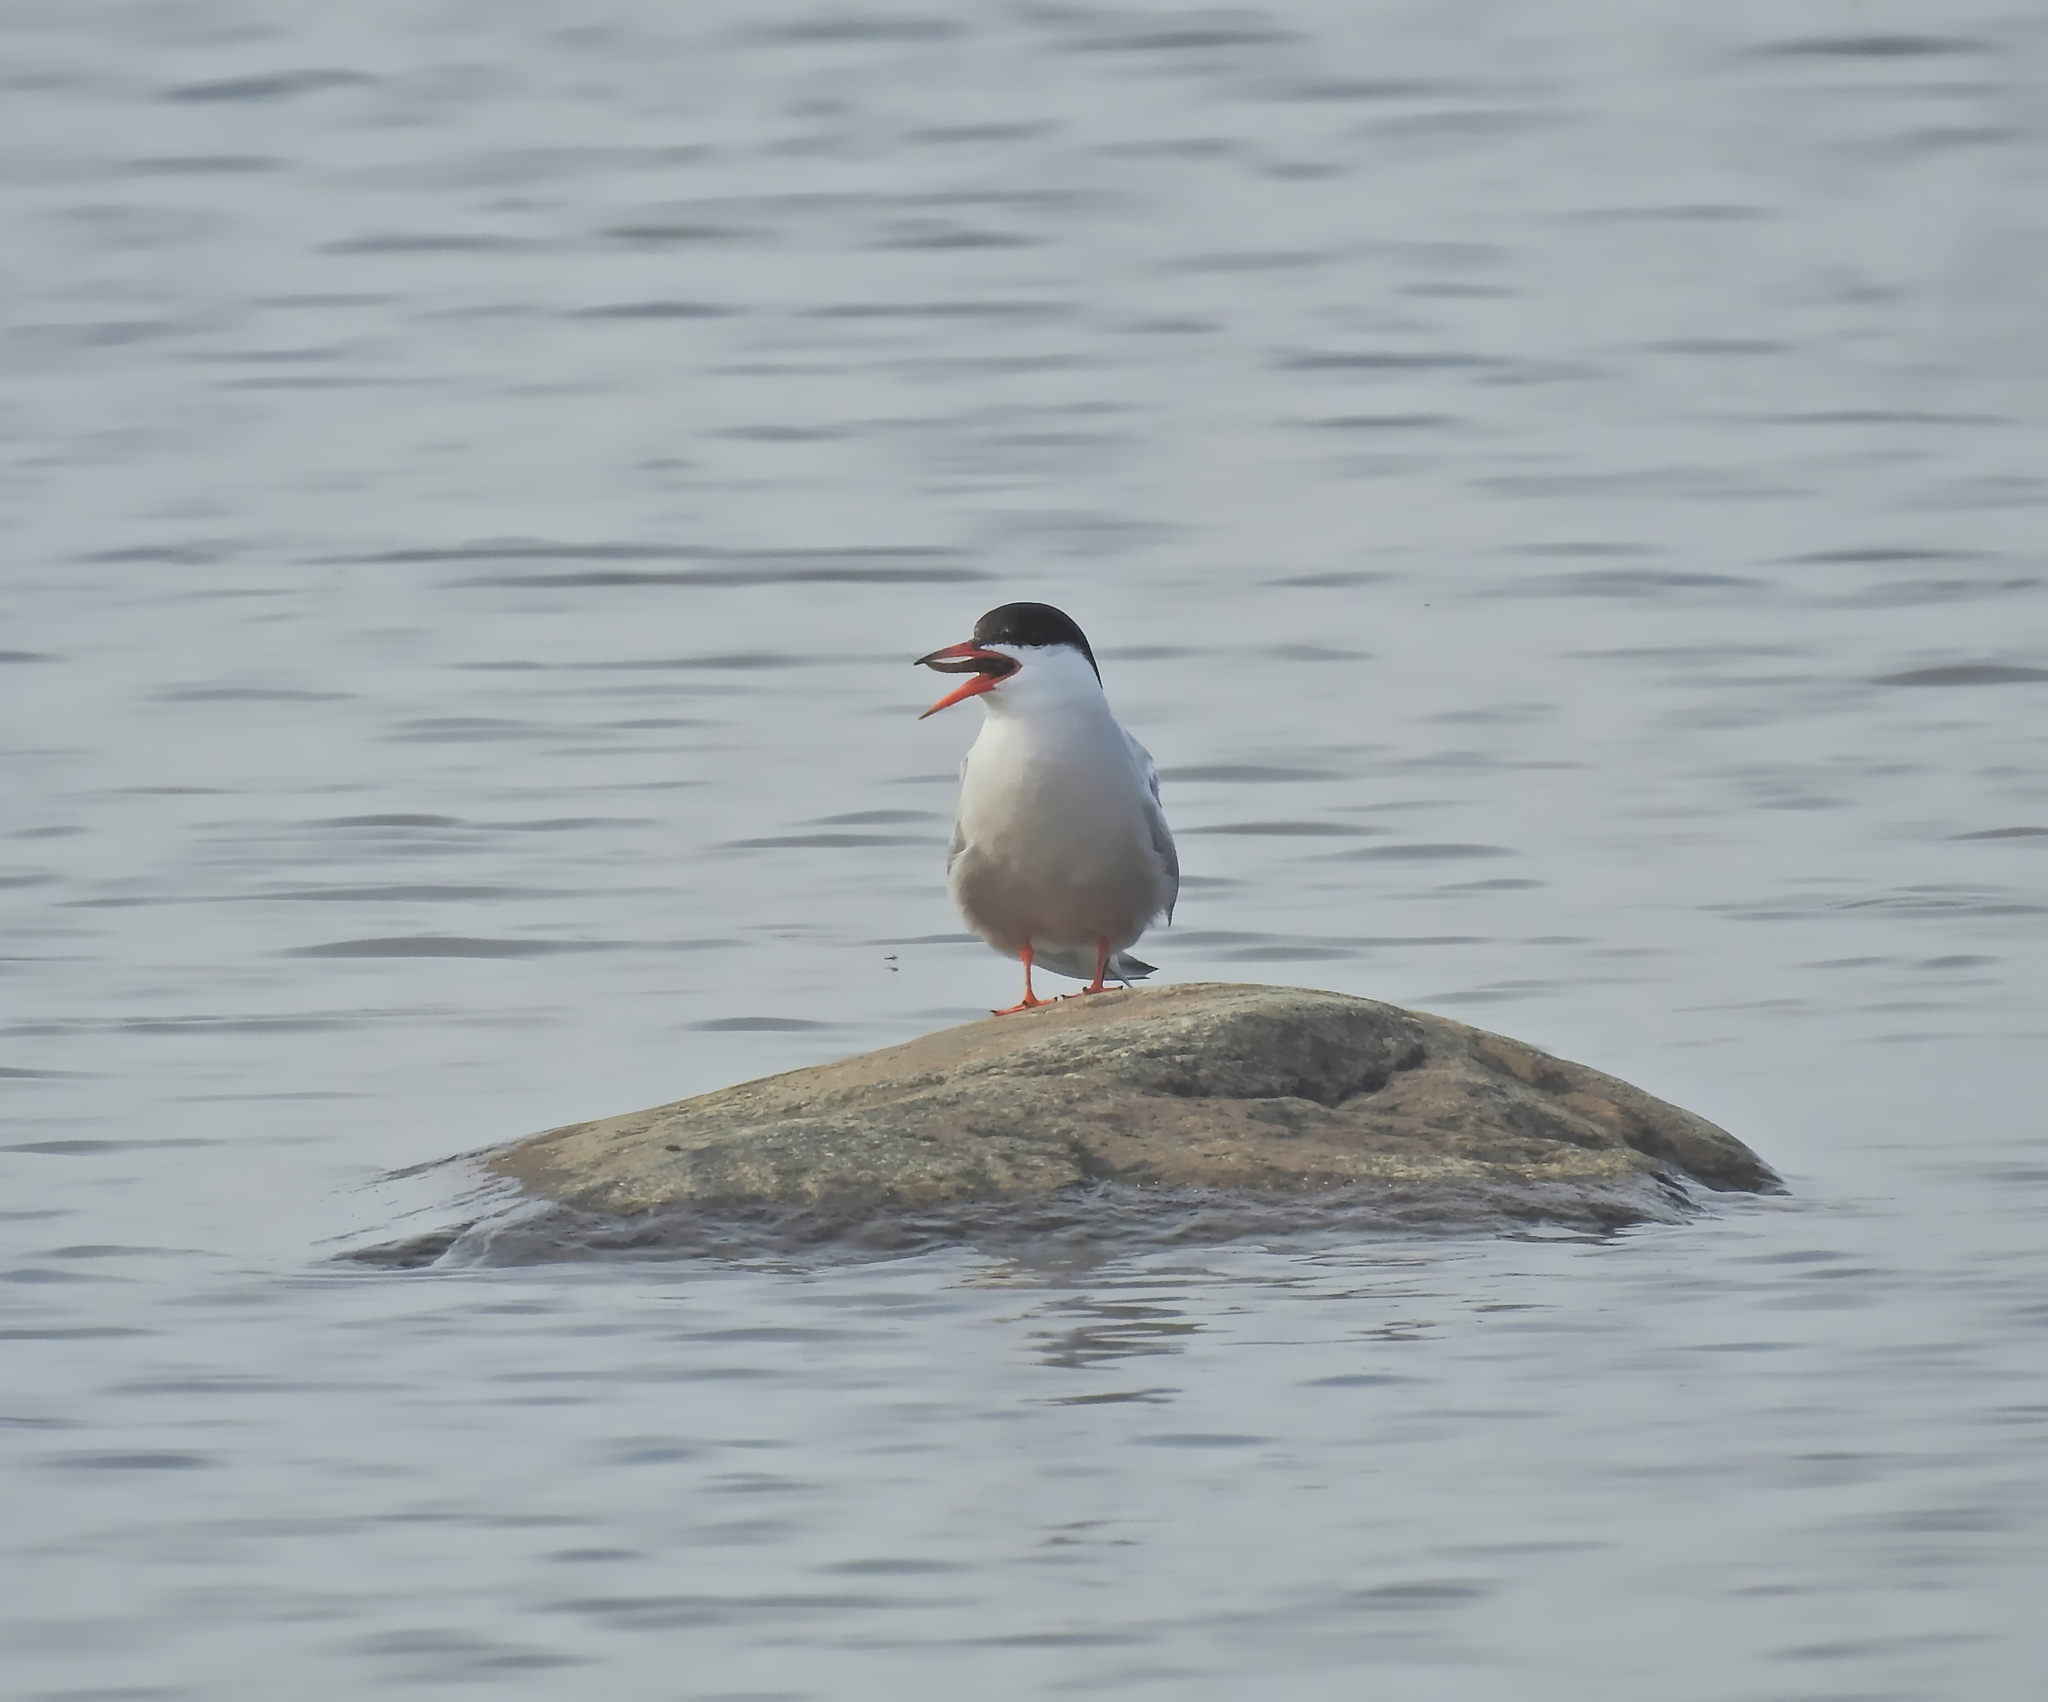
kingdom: Animalia
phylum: Chordata
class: Aves
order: Charadriiformes
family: Laridae
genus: Sterna
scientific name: Sterna hirundo
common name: Common tern
